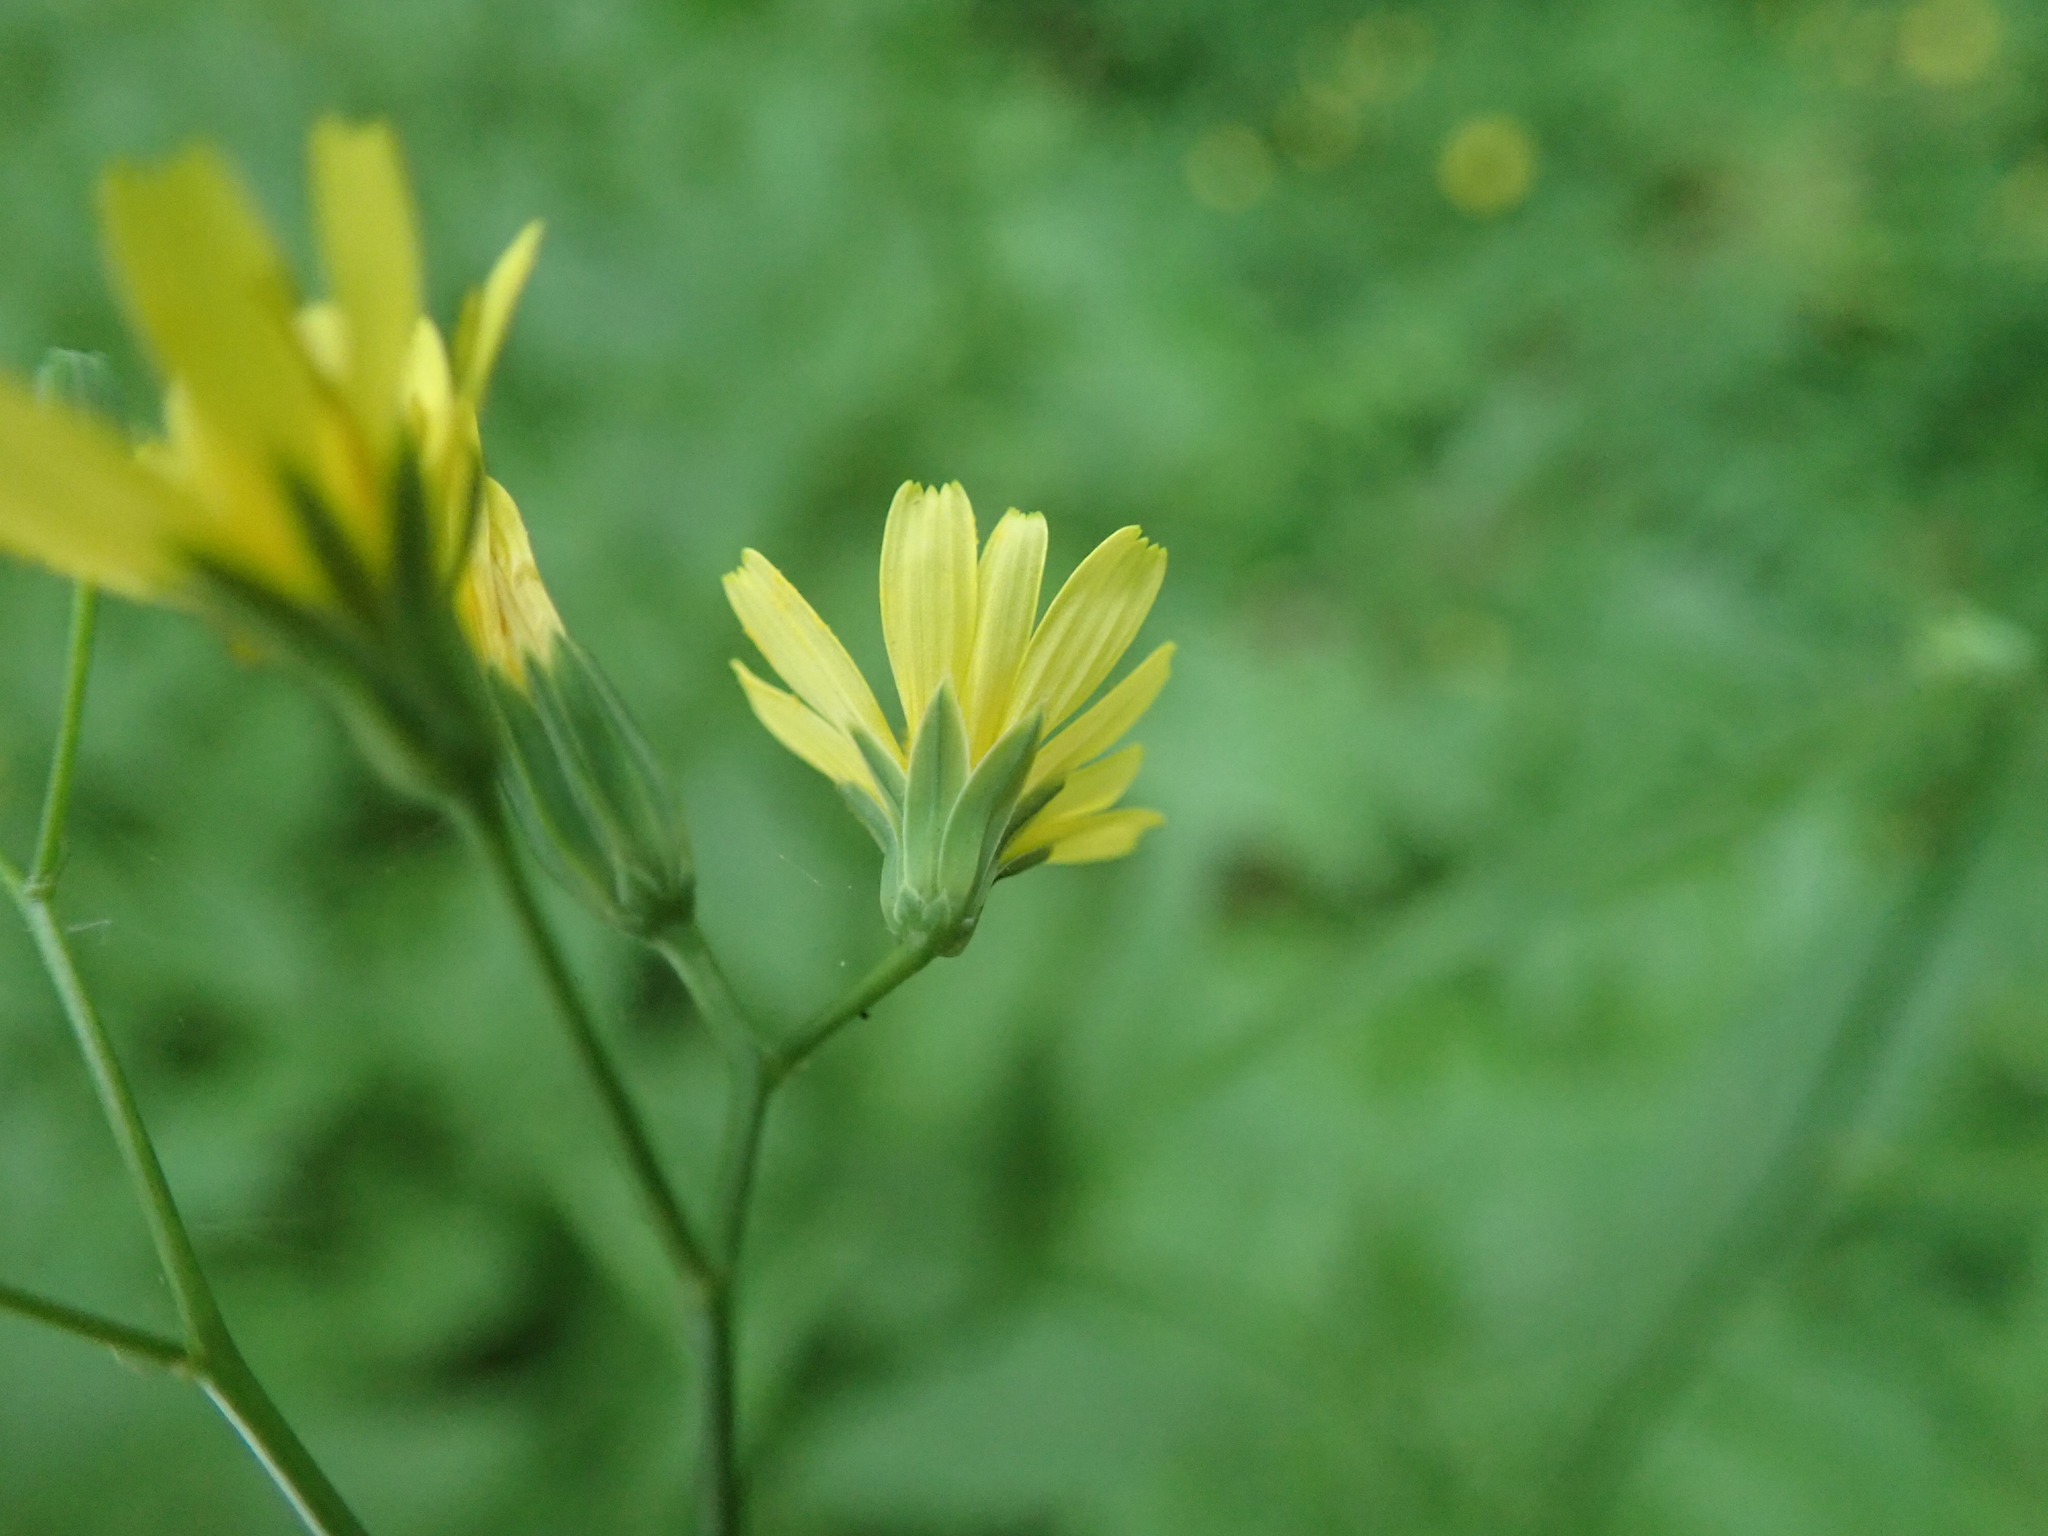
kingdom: Plantae
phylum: Tracheophyta
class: Magnoliopsida
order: Asterales
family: Asteraceae
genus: Lapsana
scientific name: Lapsana communis
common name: Nipplewort
